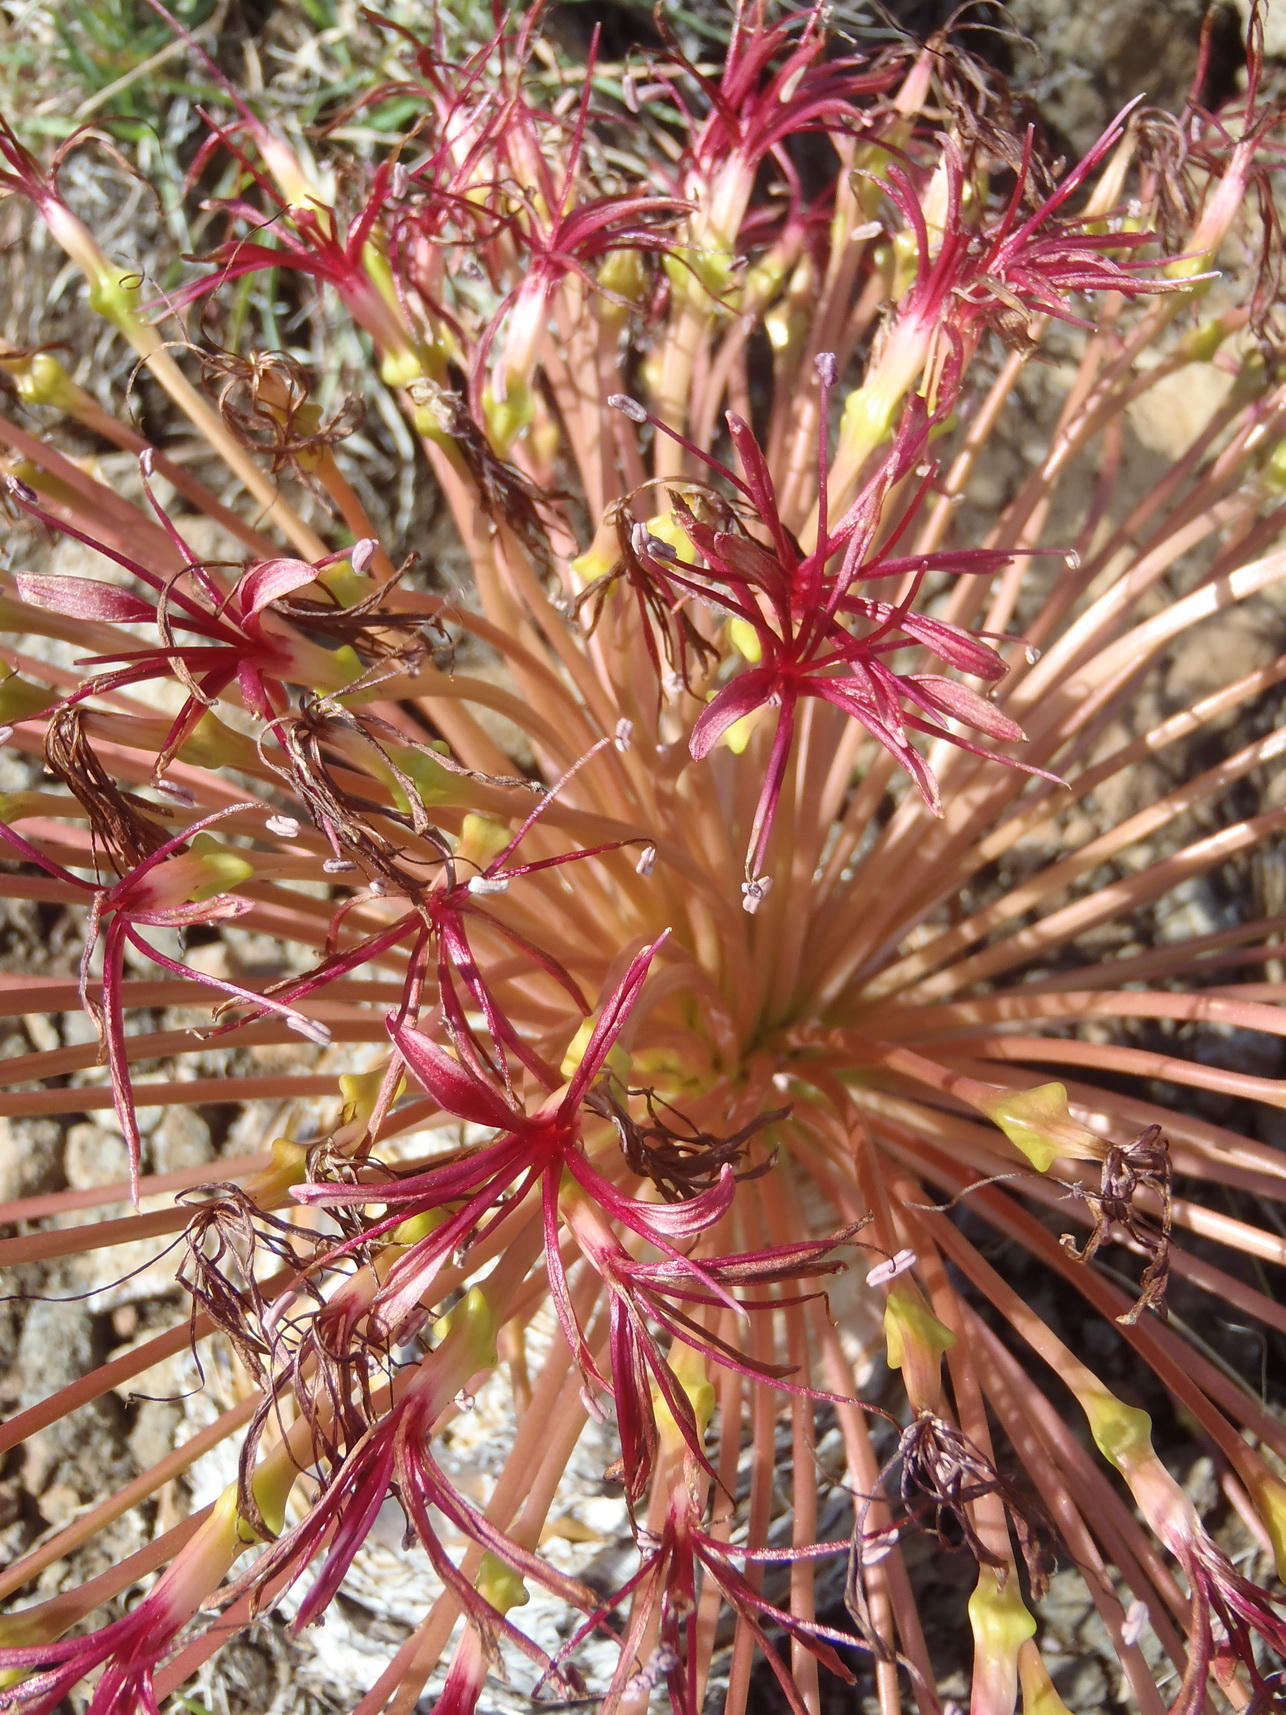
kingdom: Plantae
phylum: Tracheophyta
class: Liliopsida
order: Asparagales
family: Amaryllidaceae
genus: Boophone
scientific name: Boophone disticha
